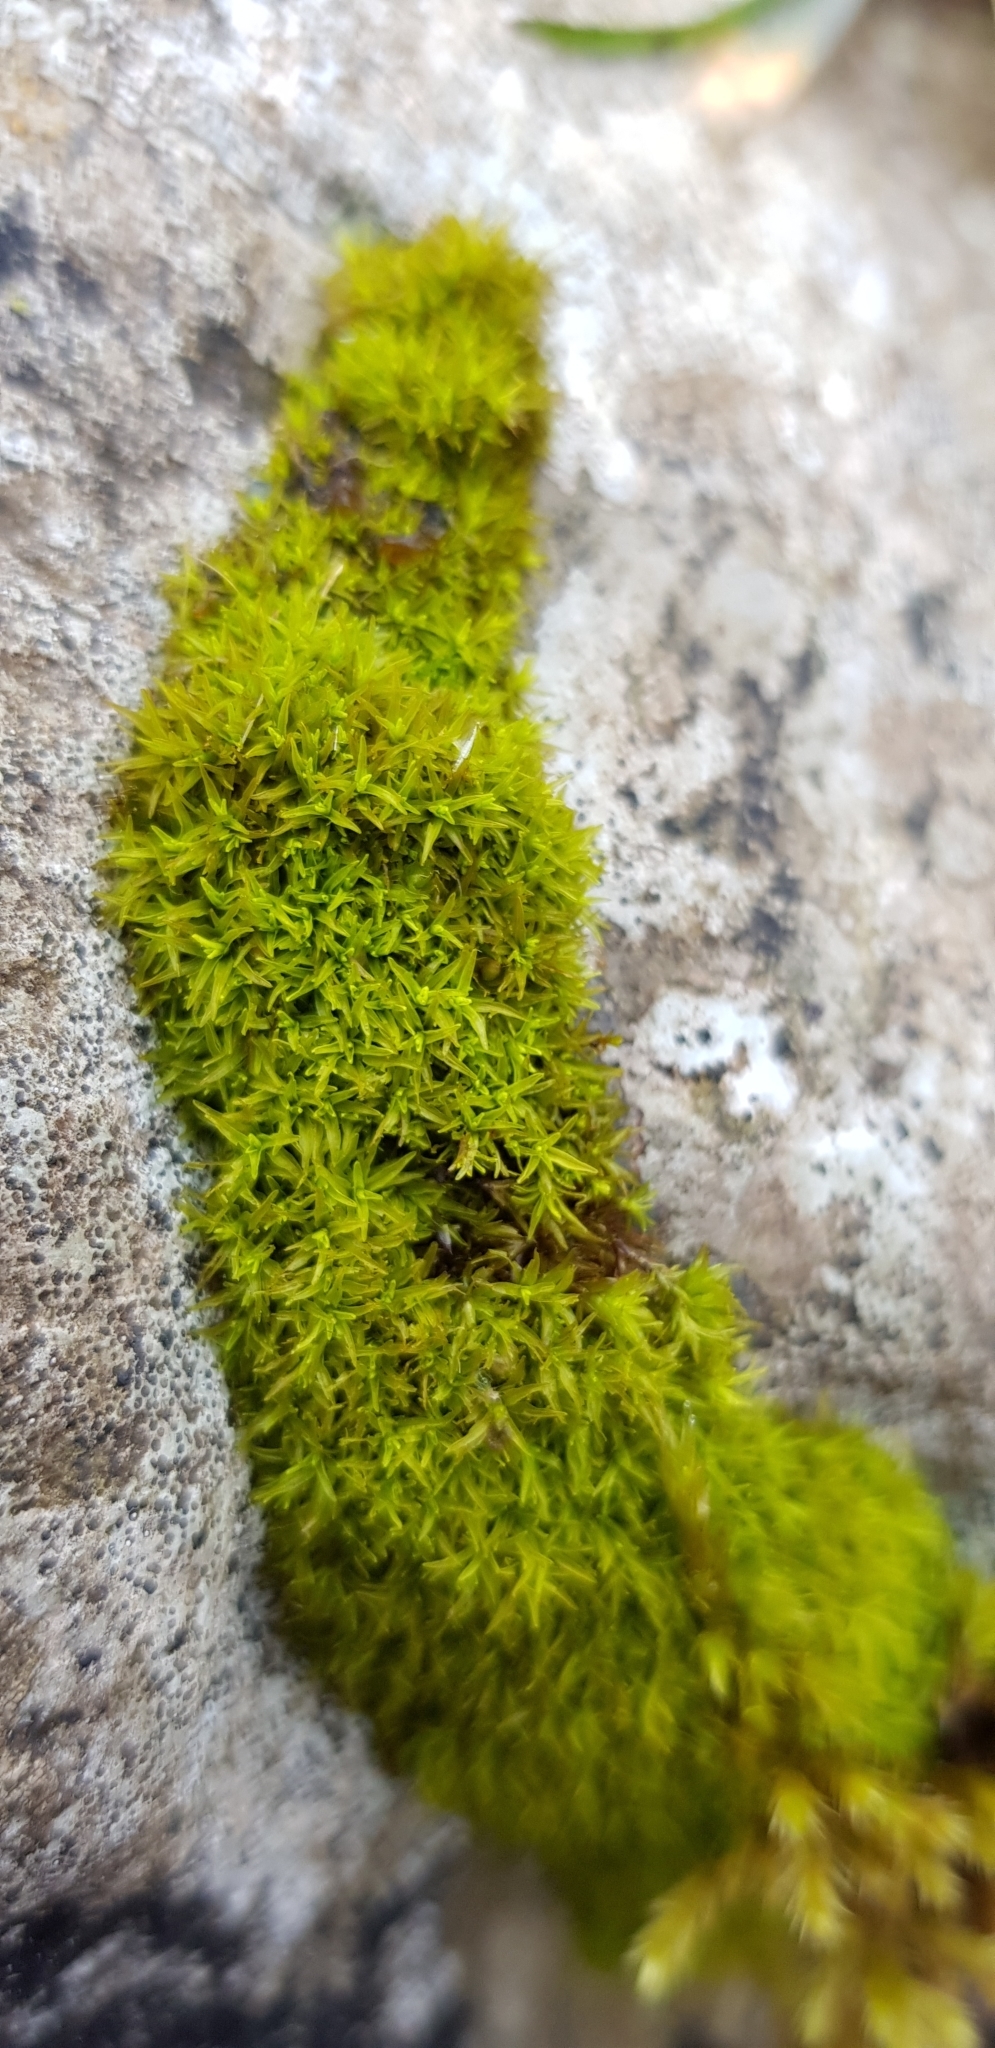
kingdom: Plantae
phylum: Bryophyta
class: Bryopsida
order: Pottiales
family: Pottiaceae
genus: Trichostomum
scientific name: Trichostomum crispulum
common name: Curly crisp-moss
